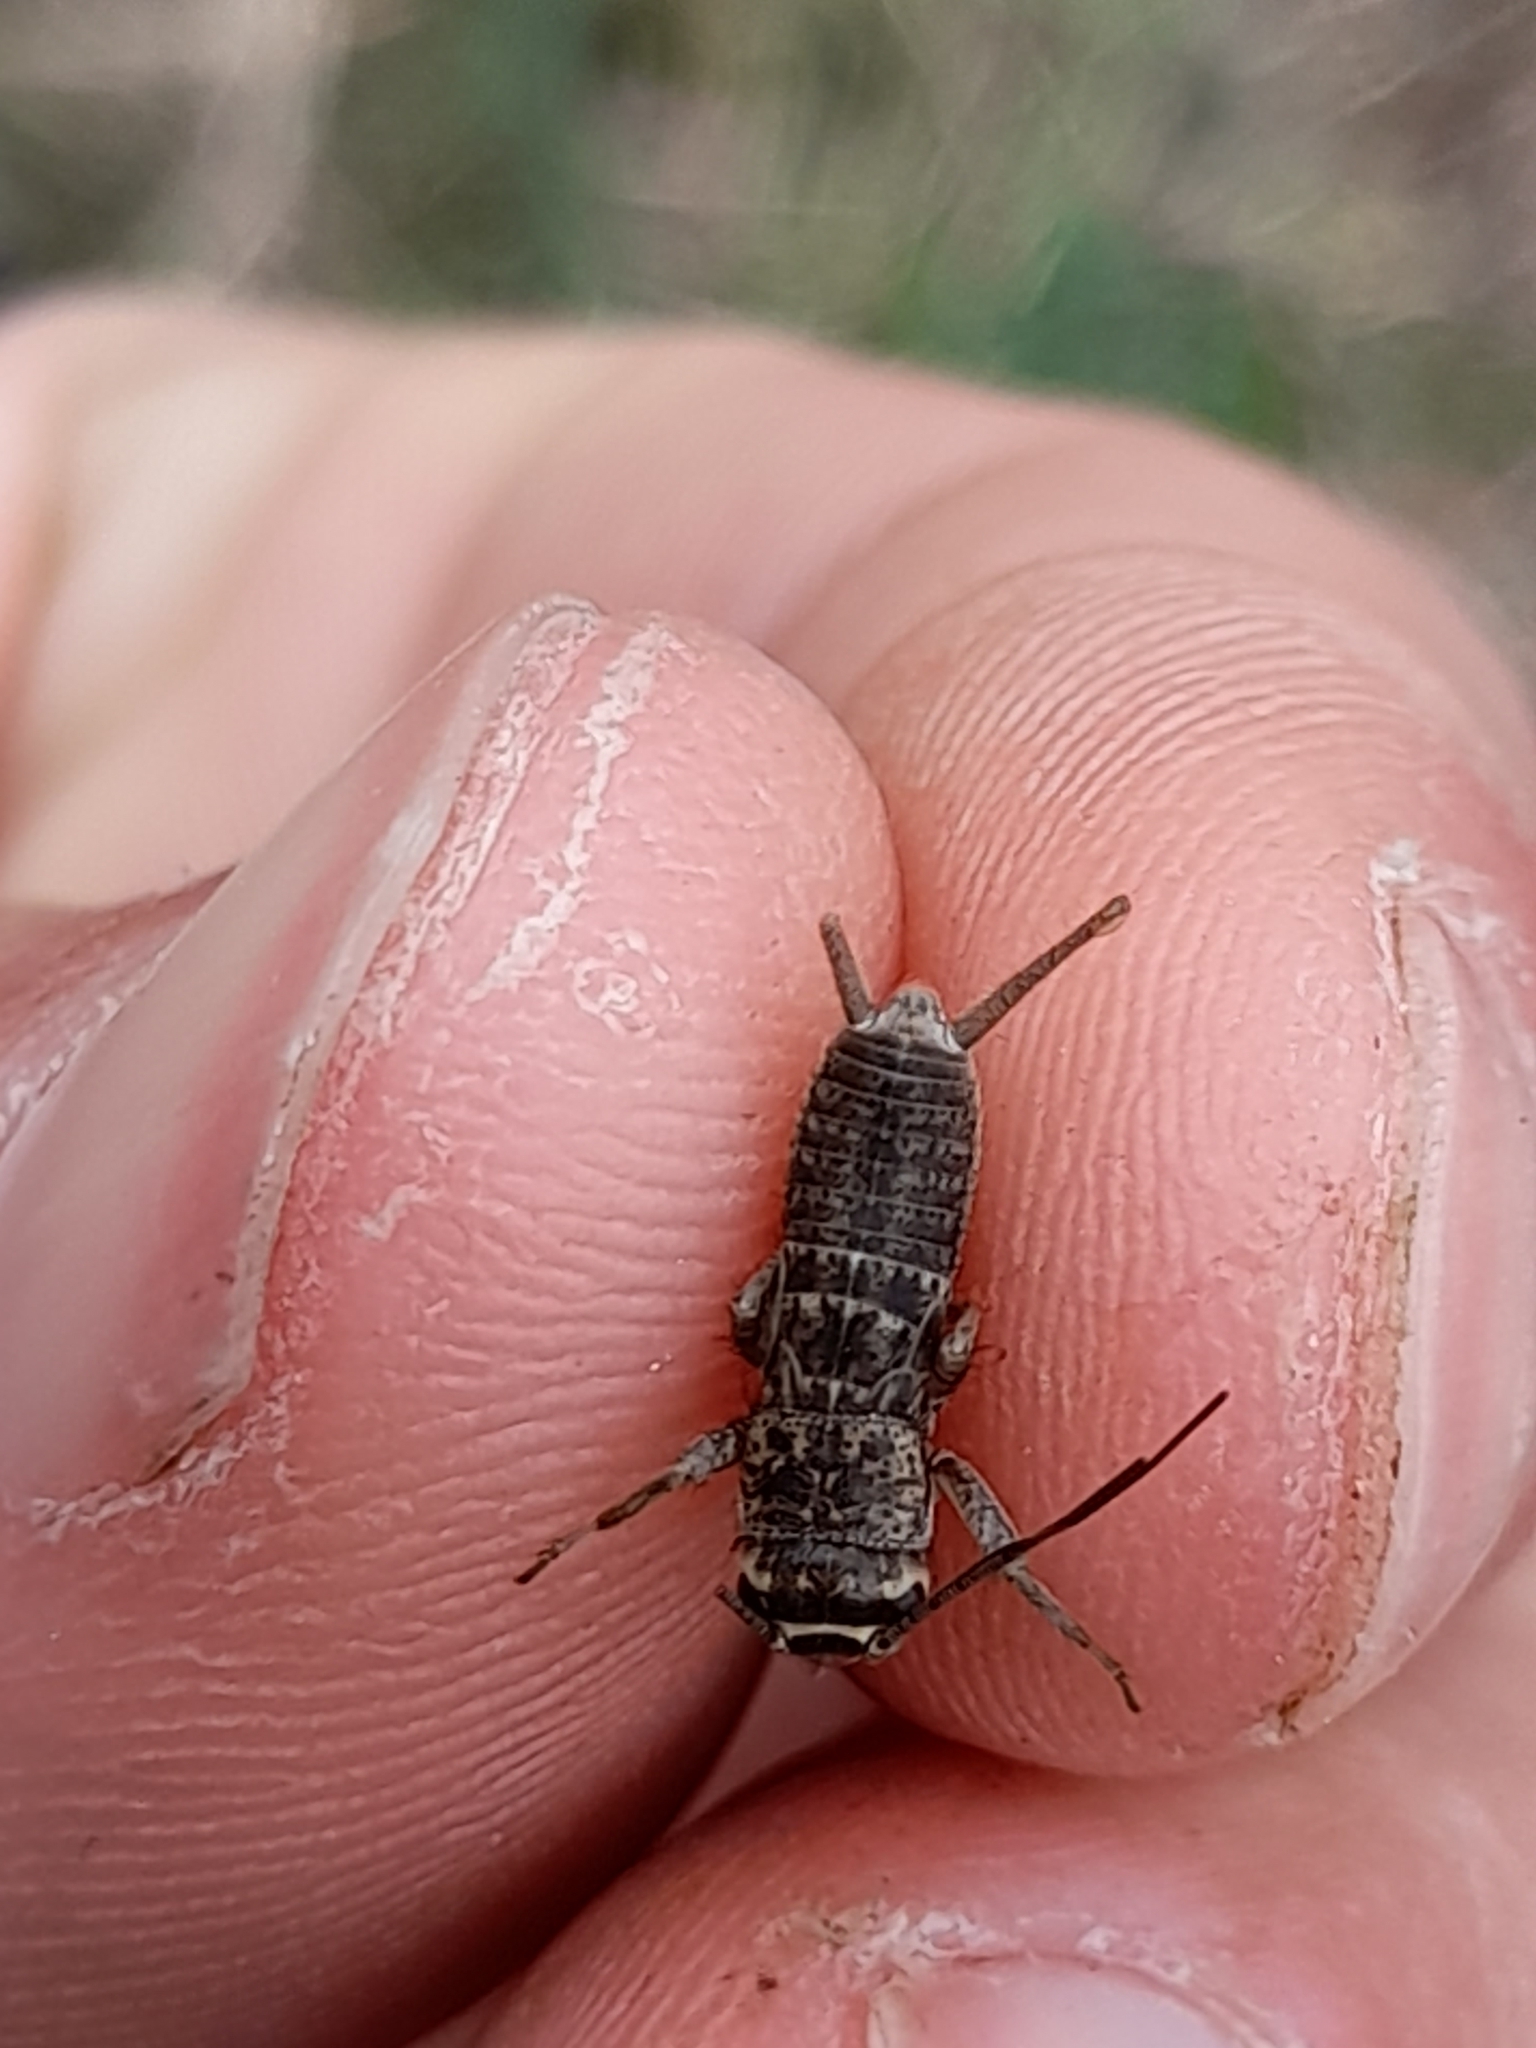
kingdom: Animalia
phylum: Arthropoda
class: Insecta
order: Orthoptera
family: Gryllidae
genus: Eumodicogryllus
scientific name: Eumodicogryllus bordigalensis
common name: Bordeaux cricket
